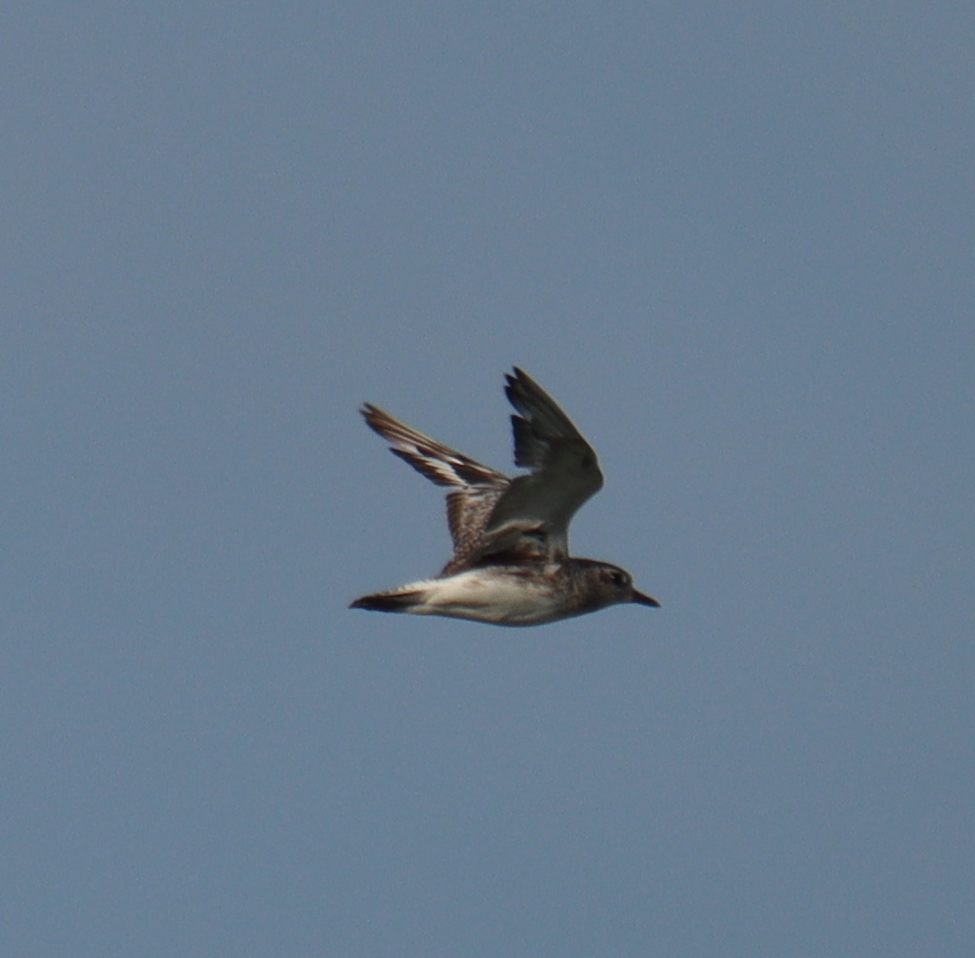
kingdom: Animalia
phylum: Chordata
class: Aves
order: Charadriiformes
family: Charadriidae
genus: Pluvialis
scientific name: Pluvialis squatarola
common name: Grey plover
